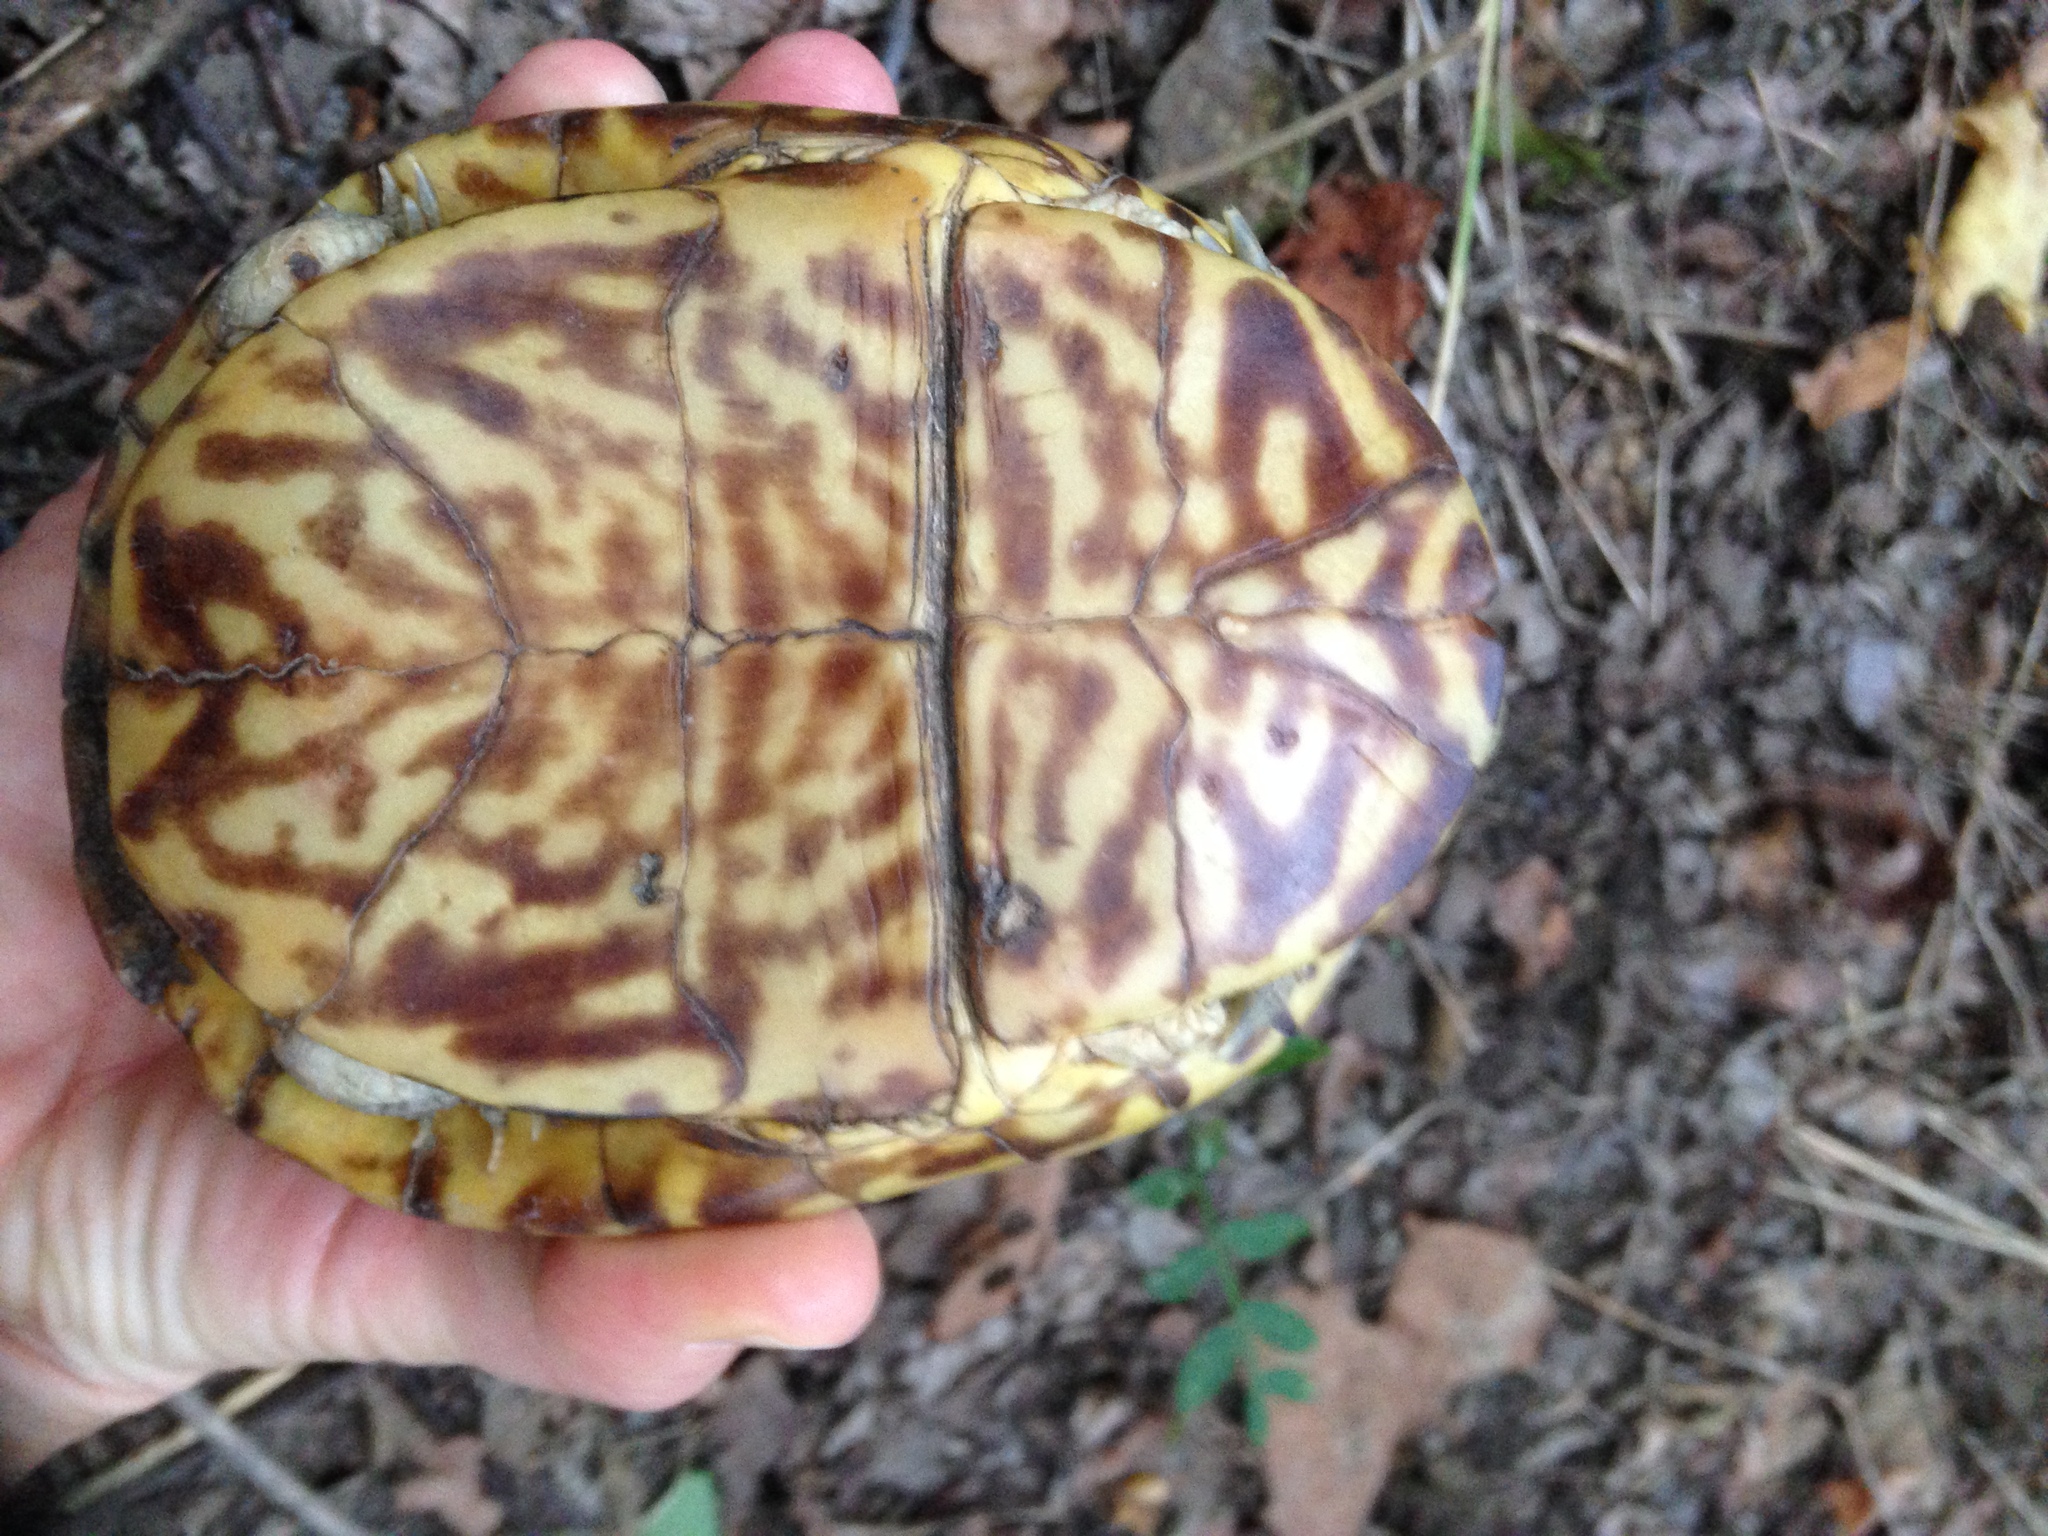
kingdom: Animalia
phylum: Chordata
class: Testudines
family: Emydidae
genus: Terrapene
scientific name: Terrapene ornata
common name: Western box turtle
